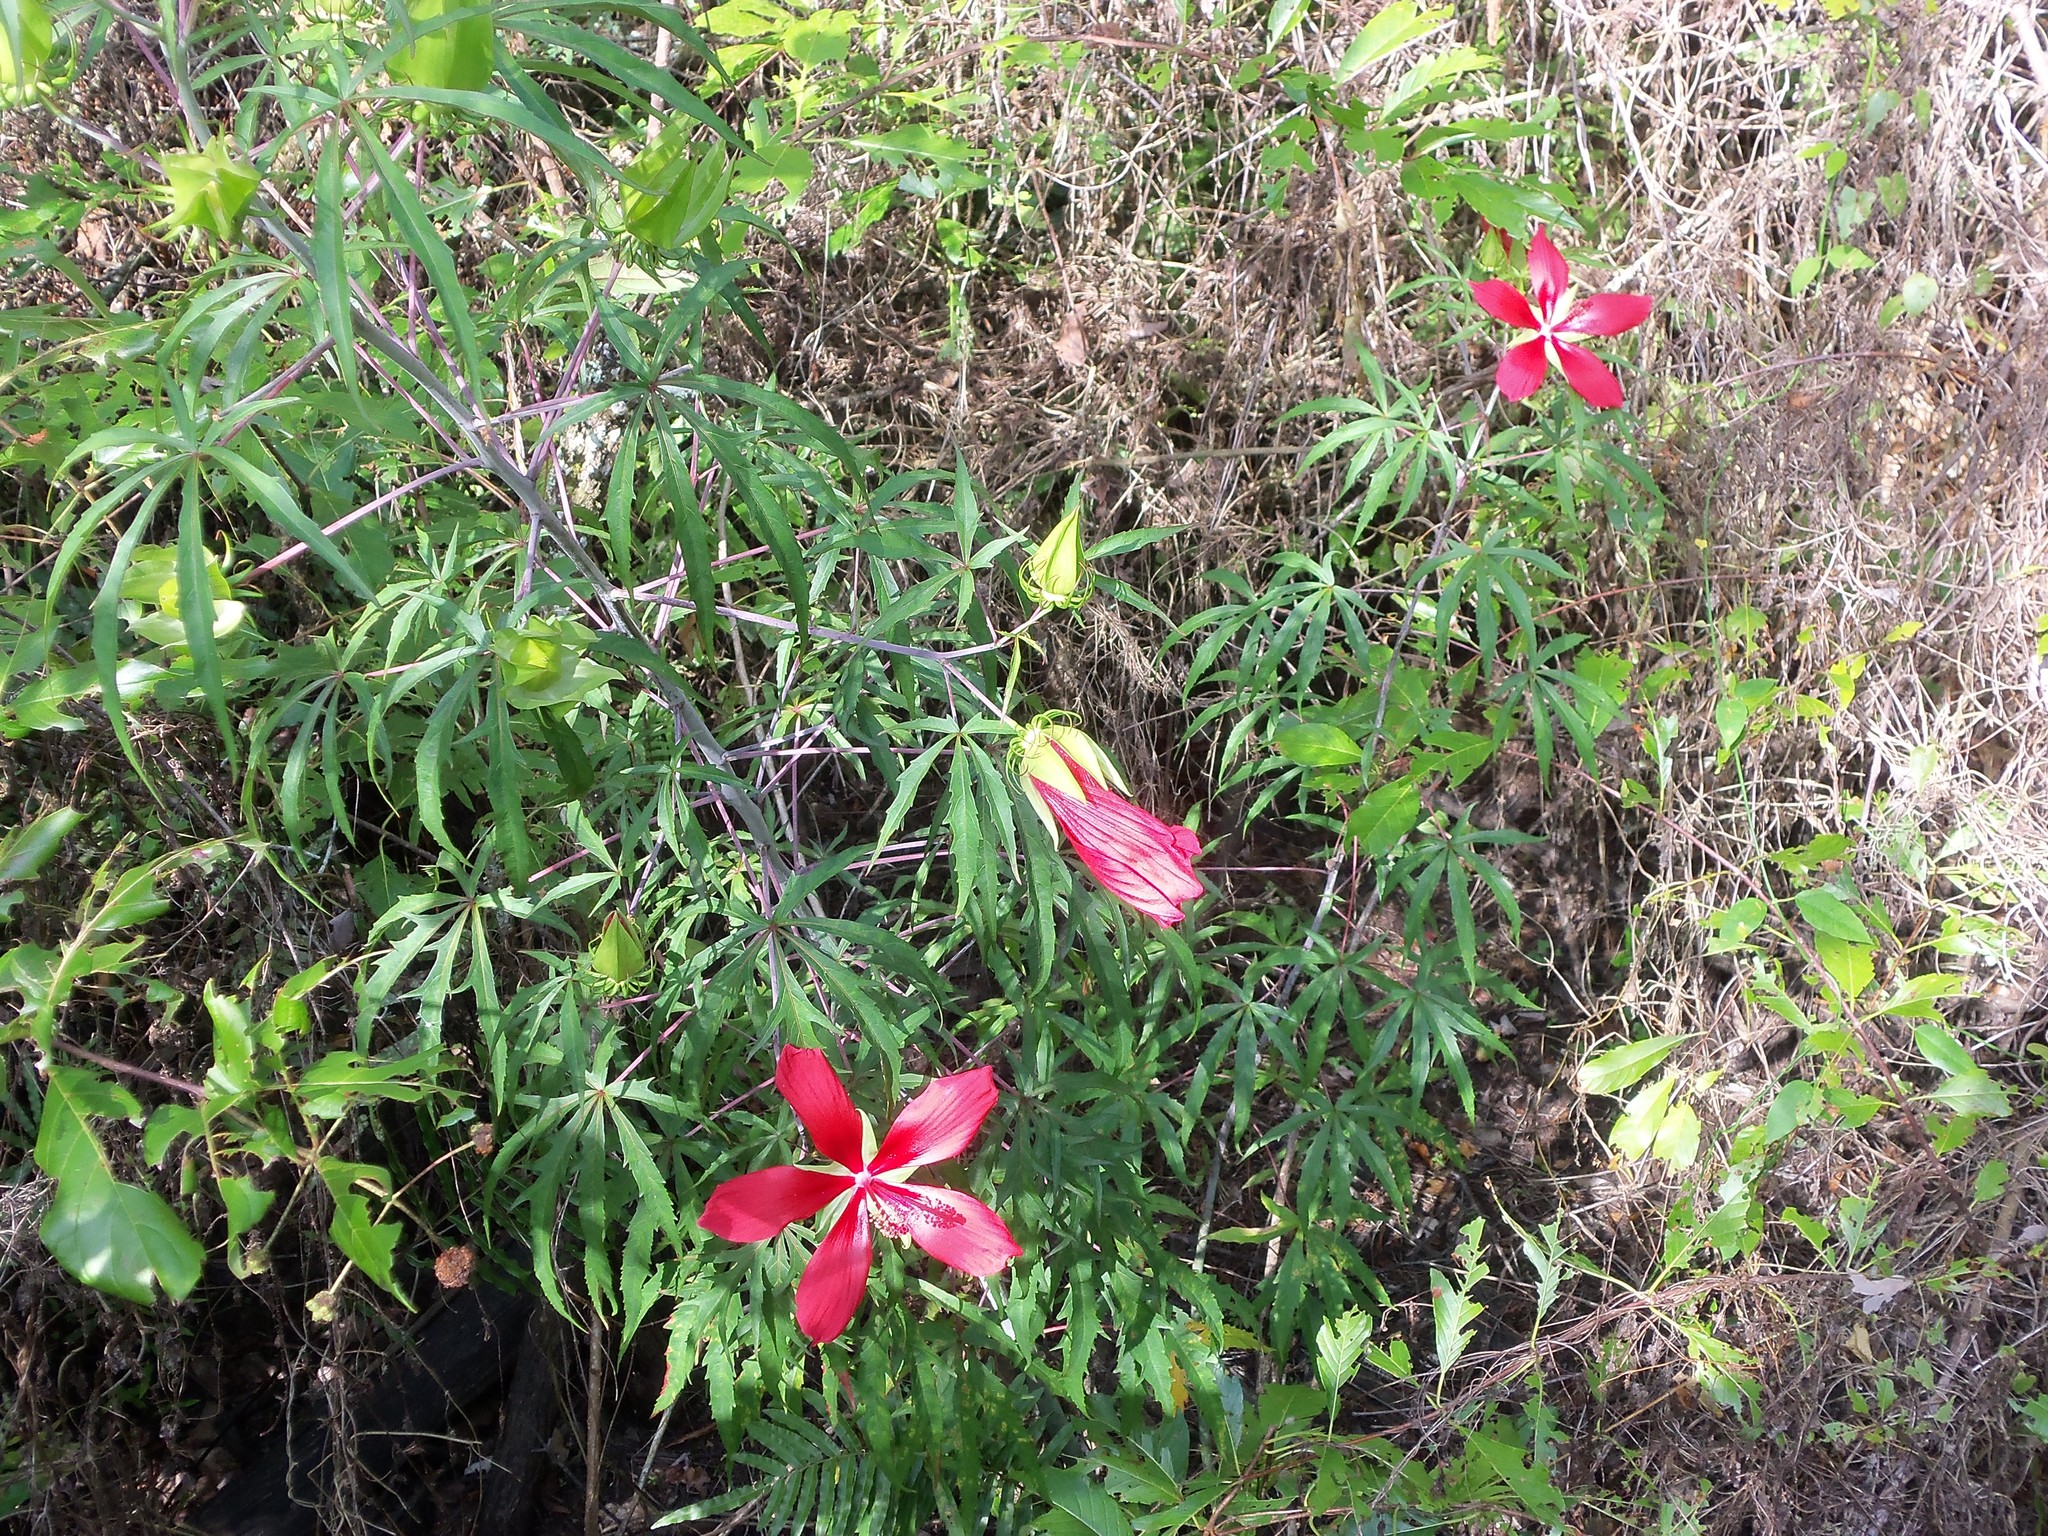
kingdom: Plantae
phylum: Tracheophyta
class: Magnoliopsida
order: Malvales
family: Malvaceae
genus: Hibiscus
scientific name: Hibiscus coccineus
